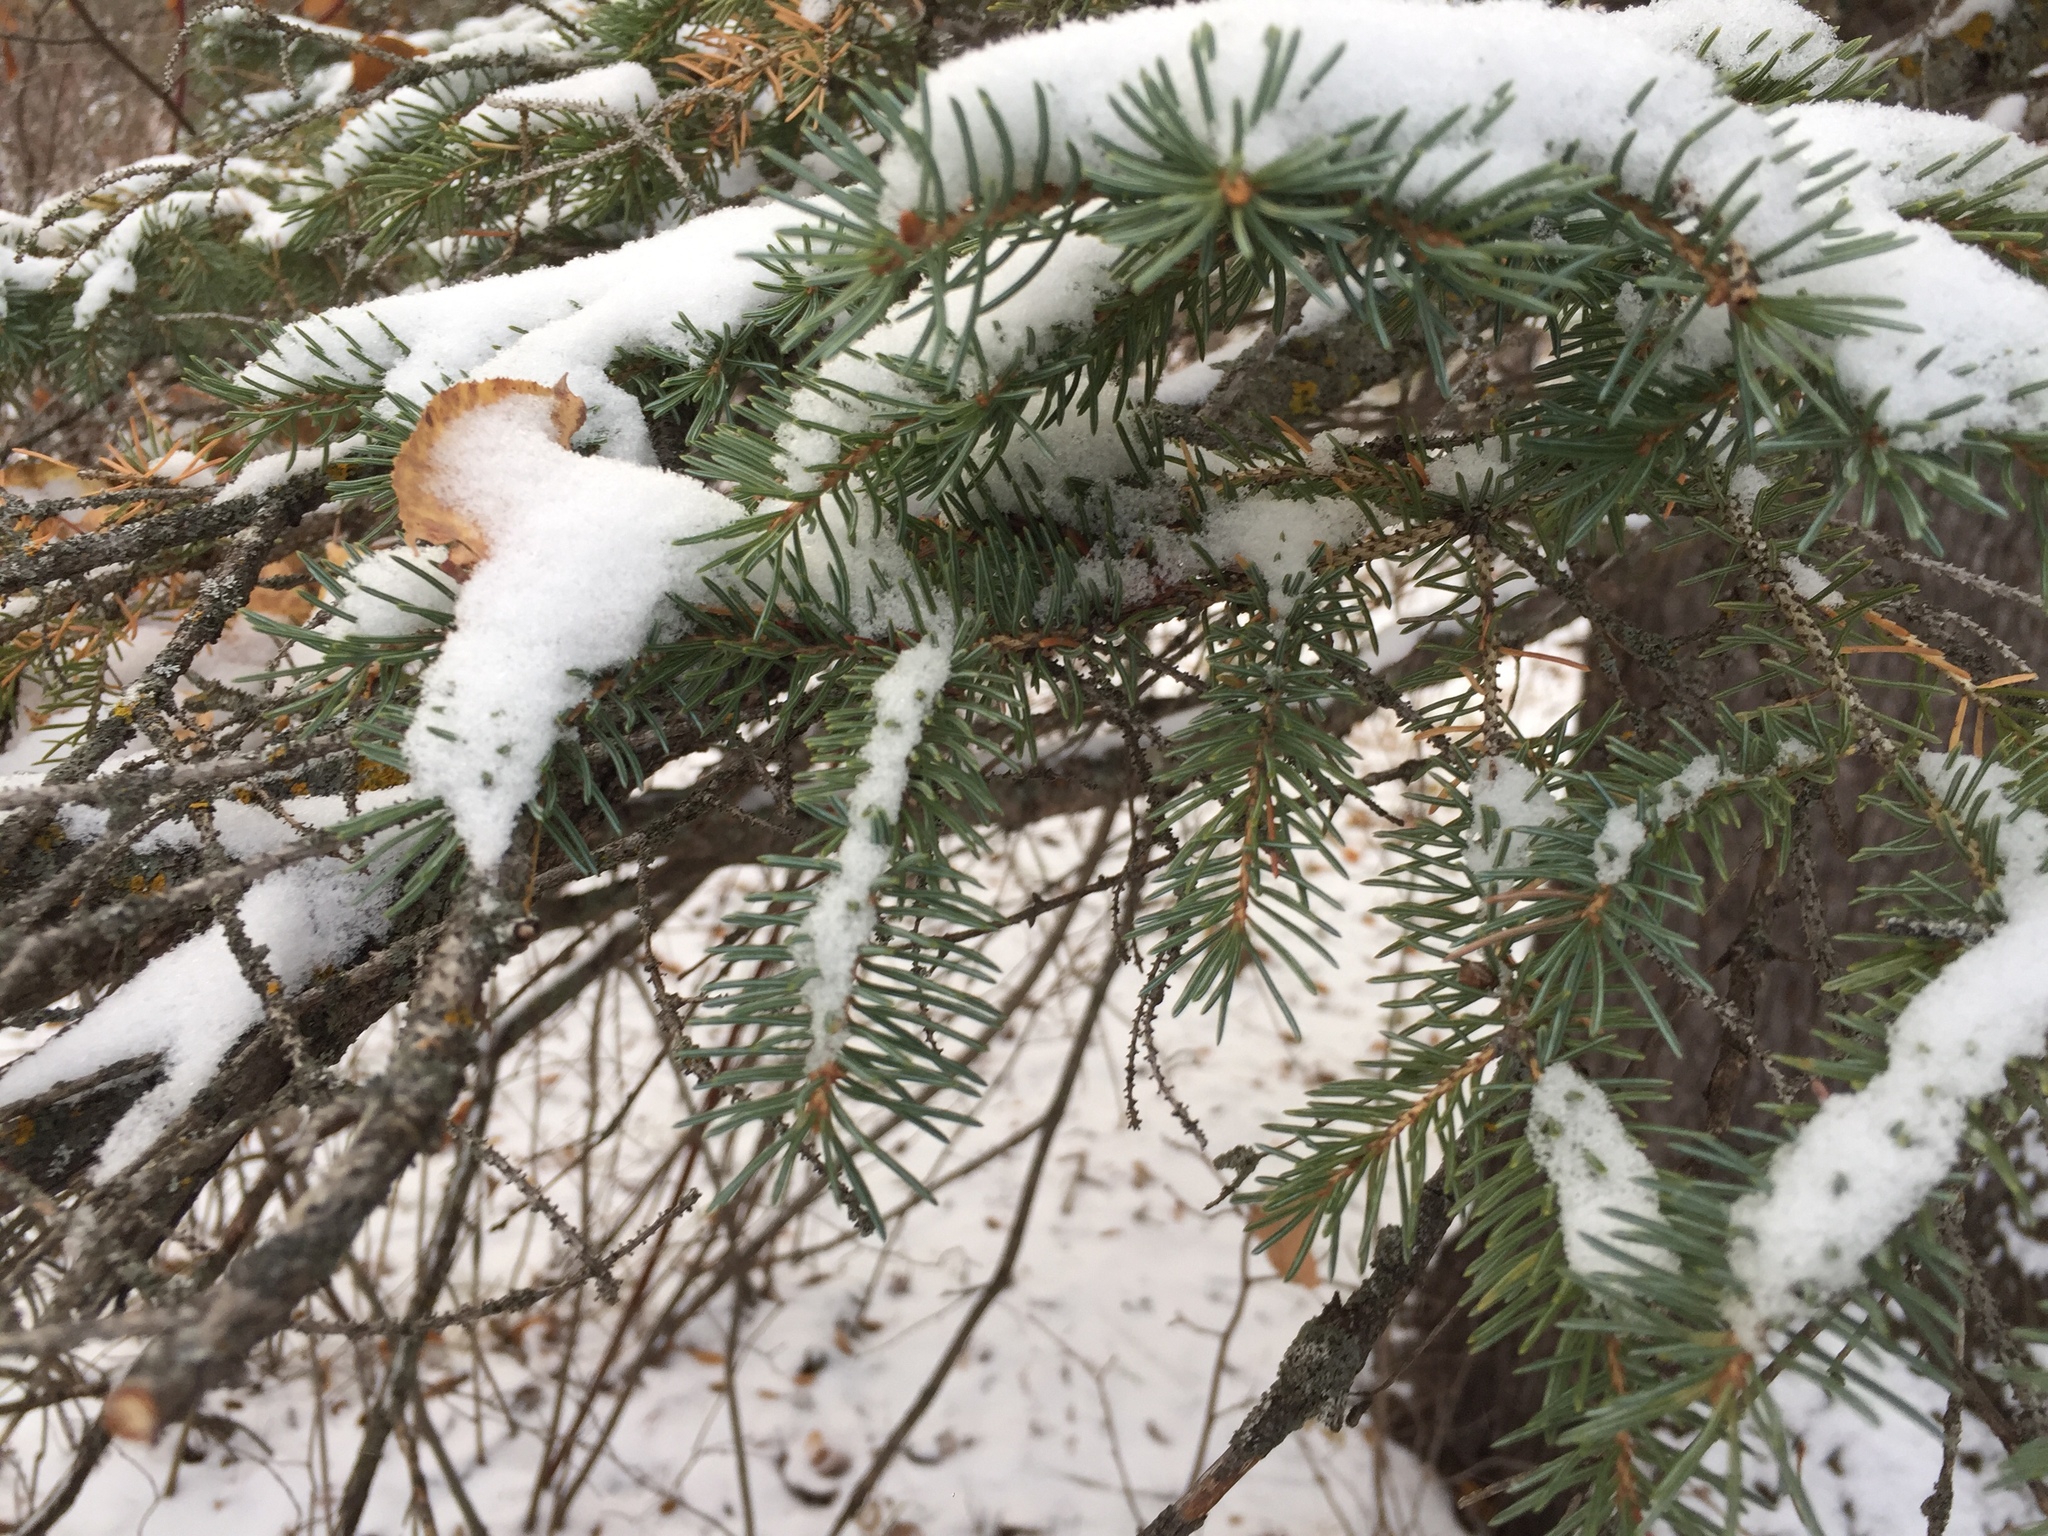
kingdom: Plantae
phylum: Tracheophyta
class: Pinopsida
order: Pinales
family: Pinaceae
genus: Picea
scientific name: Picea glauca
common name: White spruce
